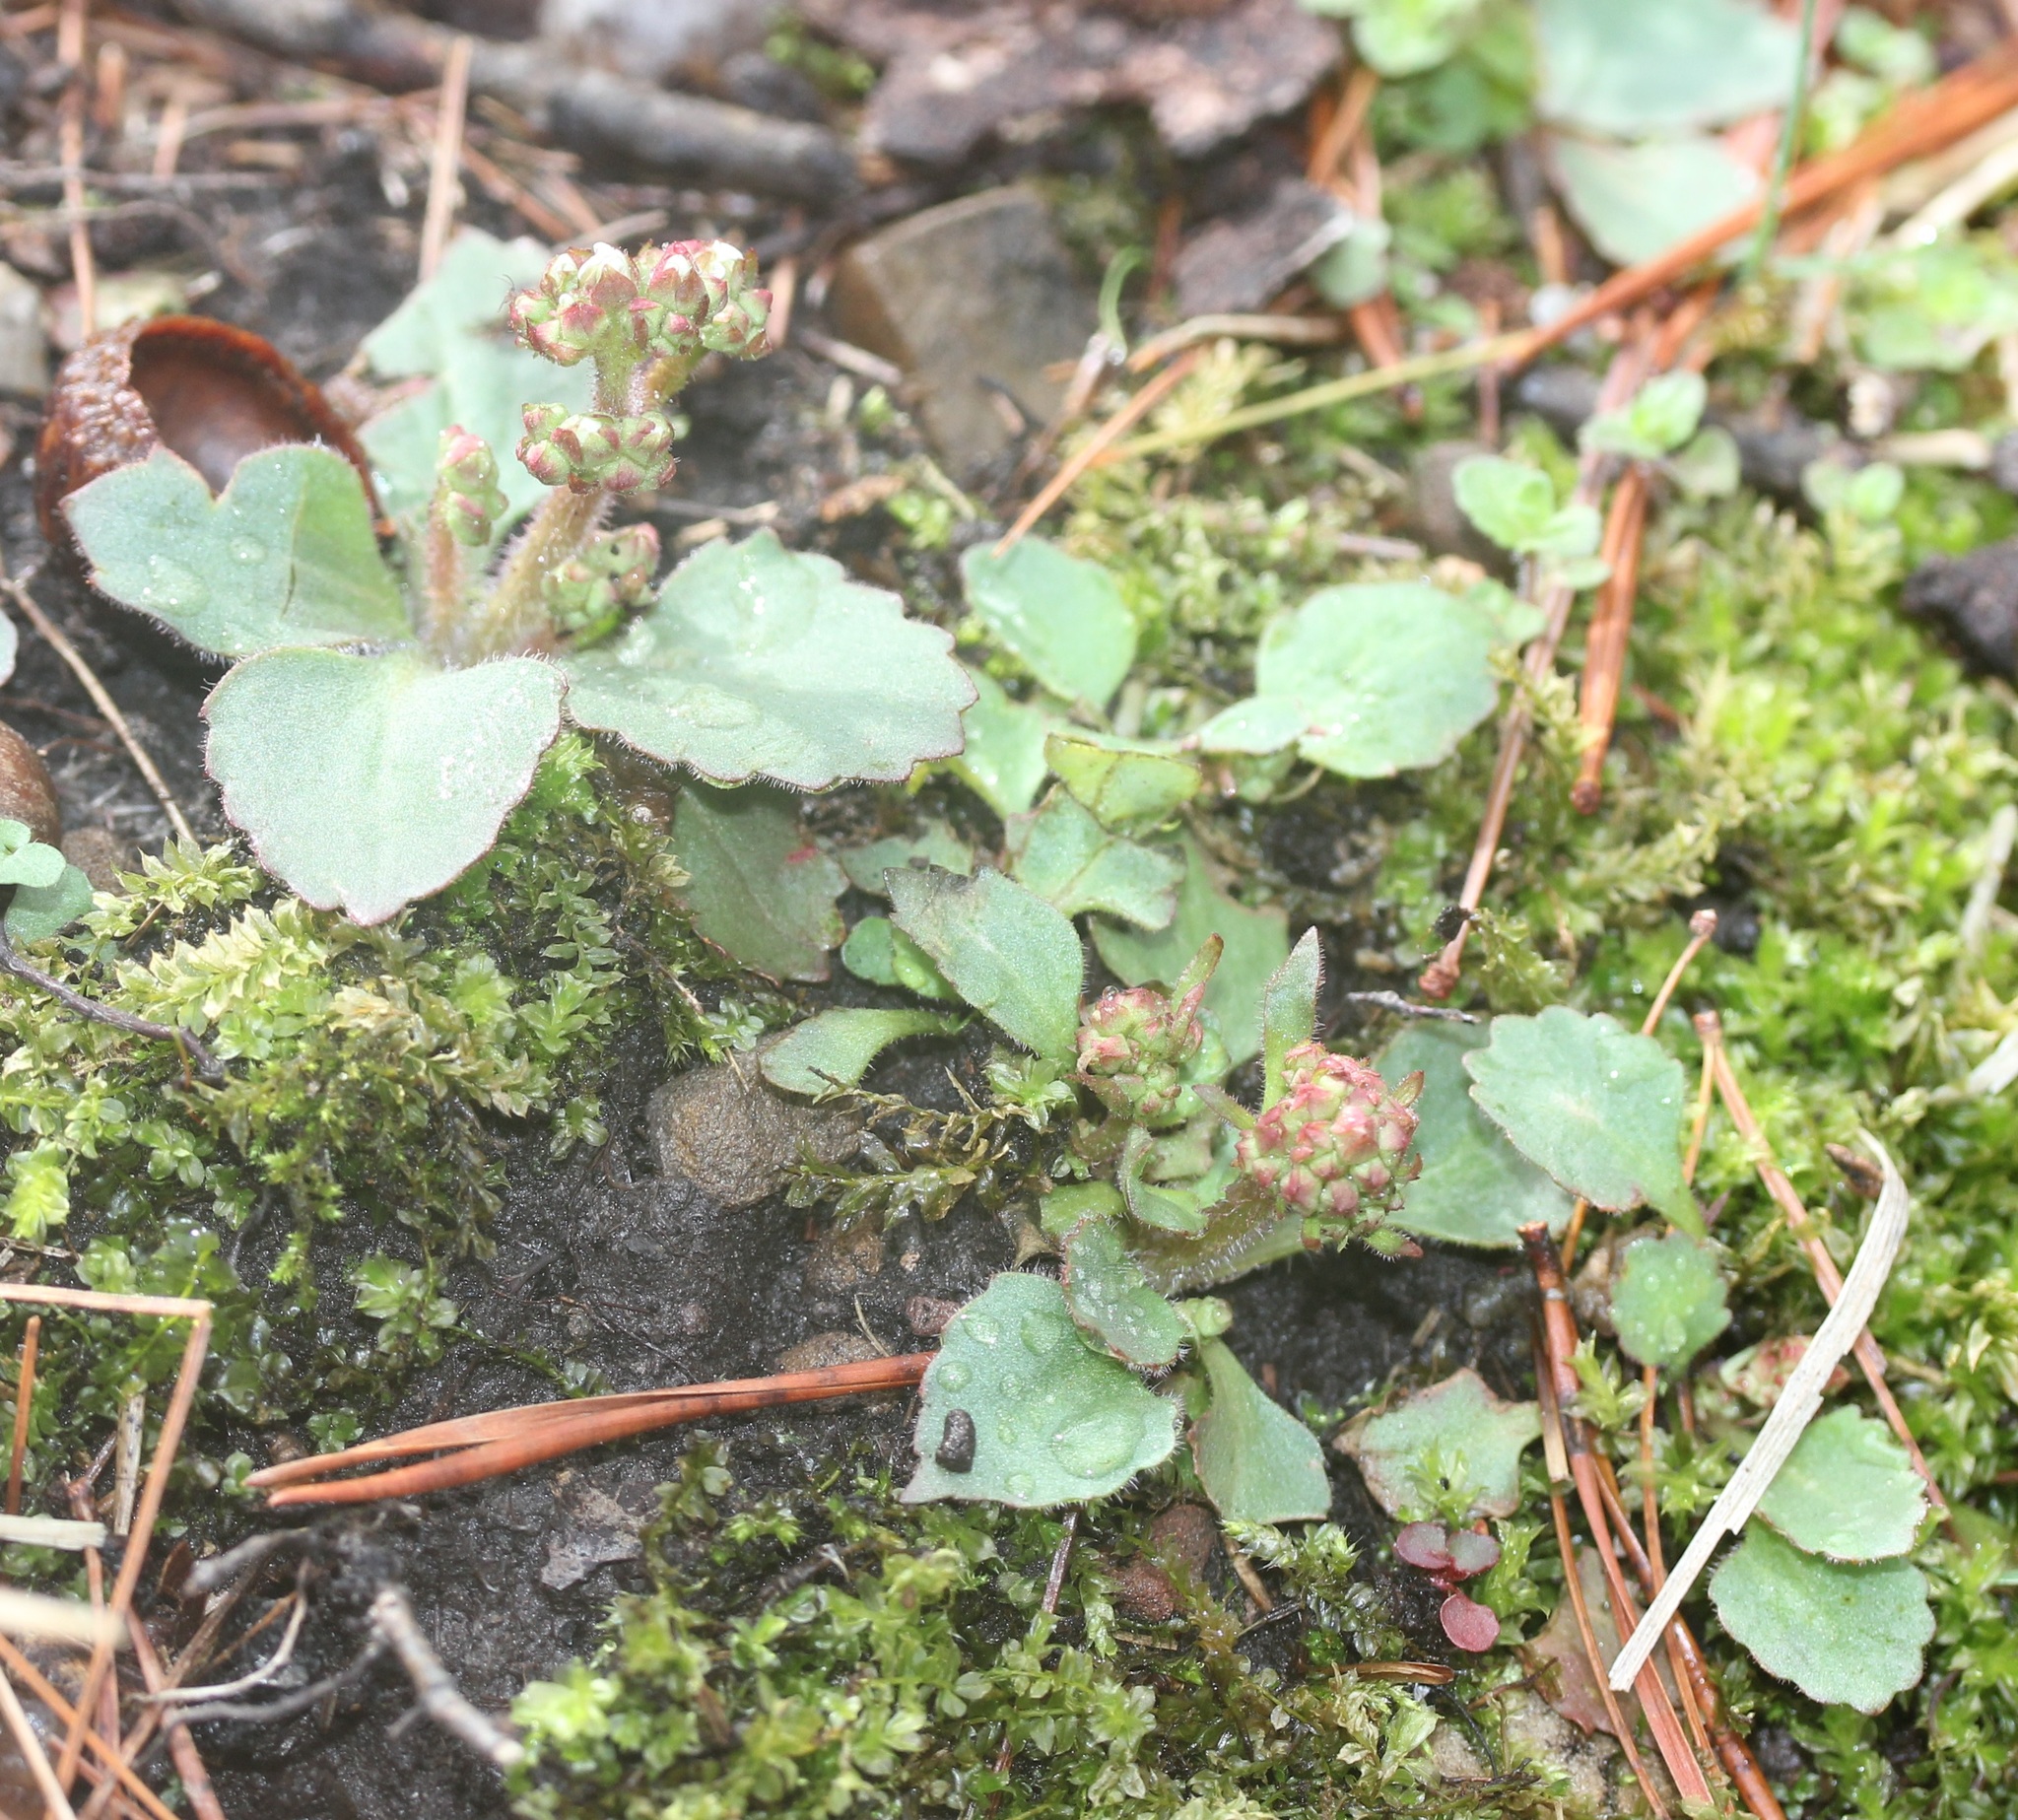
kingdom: Plantae
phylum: Tracheophyta
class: Magnoliopsida
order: Saxifragales
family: Saxifragaceae
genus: Micranthes
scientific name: Micranthes virginiensis
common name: Early saxifrage
